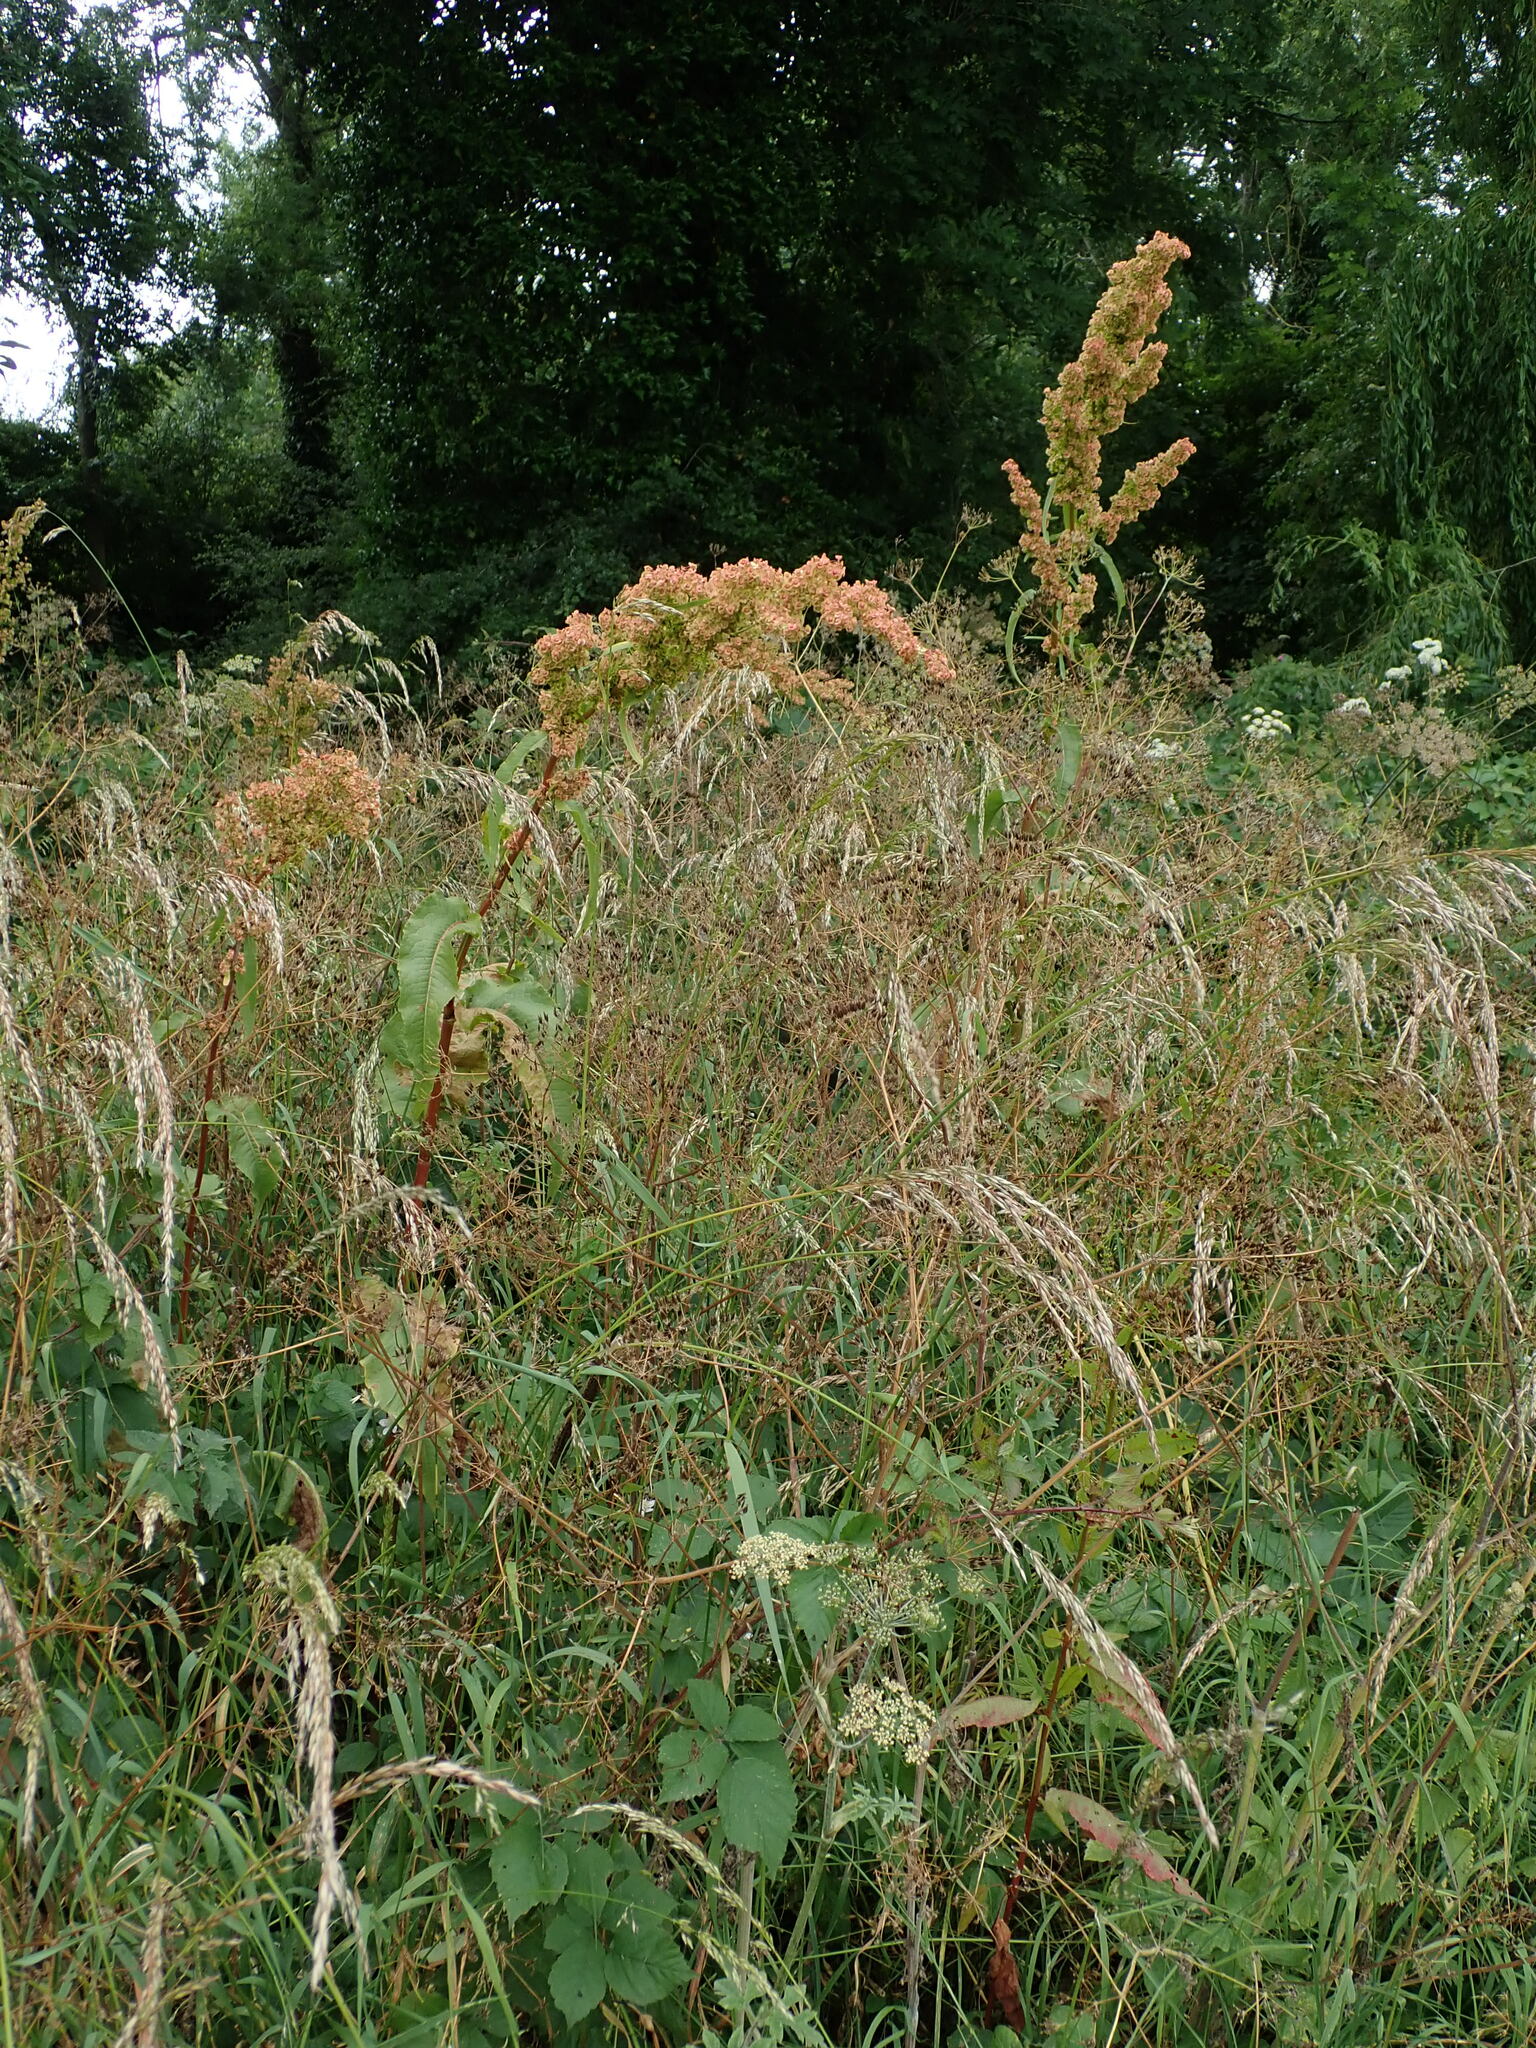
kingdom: Plantae
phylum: Tracheophyta
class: Magnoliopsida
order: Caryophyllales
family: Polygonaceae
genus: Rumex
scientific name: Rumex cristatus
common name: Greek dock
